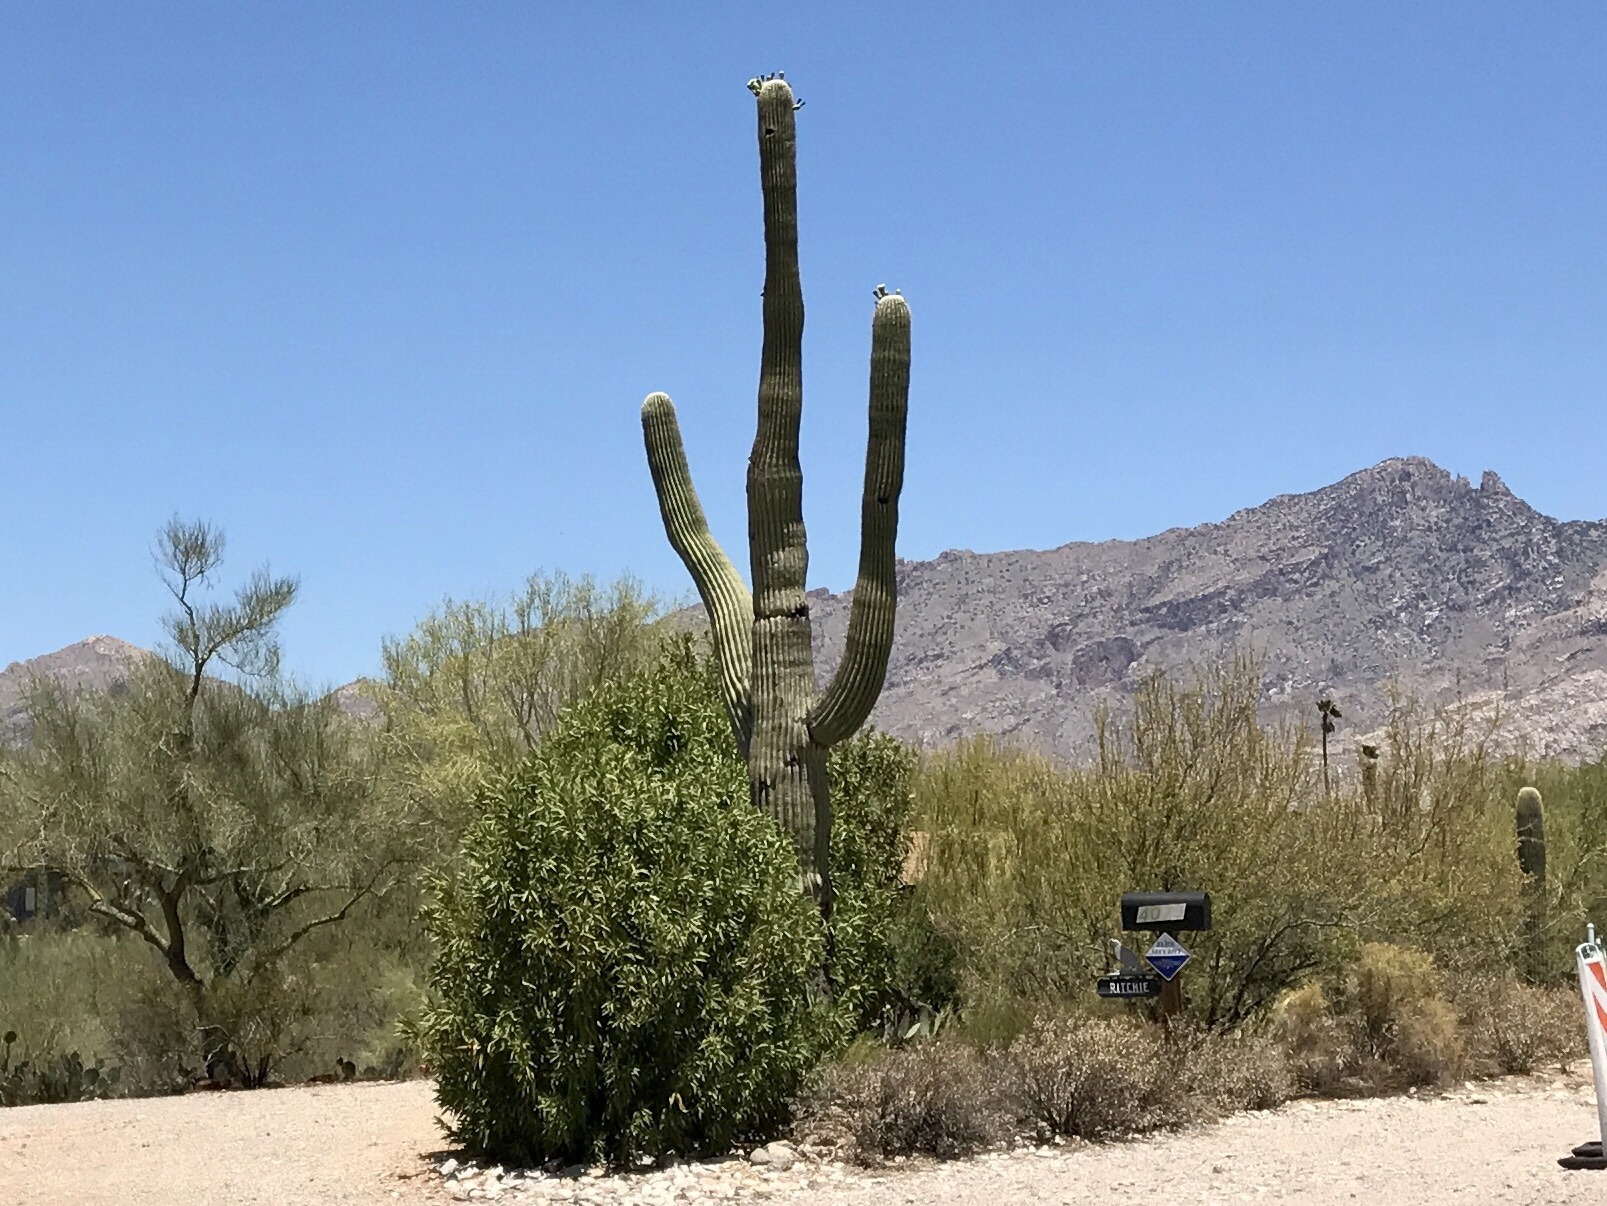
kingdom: Plantae
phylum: Tracheophyta
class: Magnoliopsida
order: Caryophyllales
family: Cactaceae
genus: Carnegiea
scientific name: Carnegiea gigantea
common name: Saguaro
